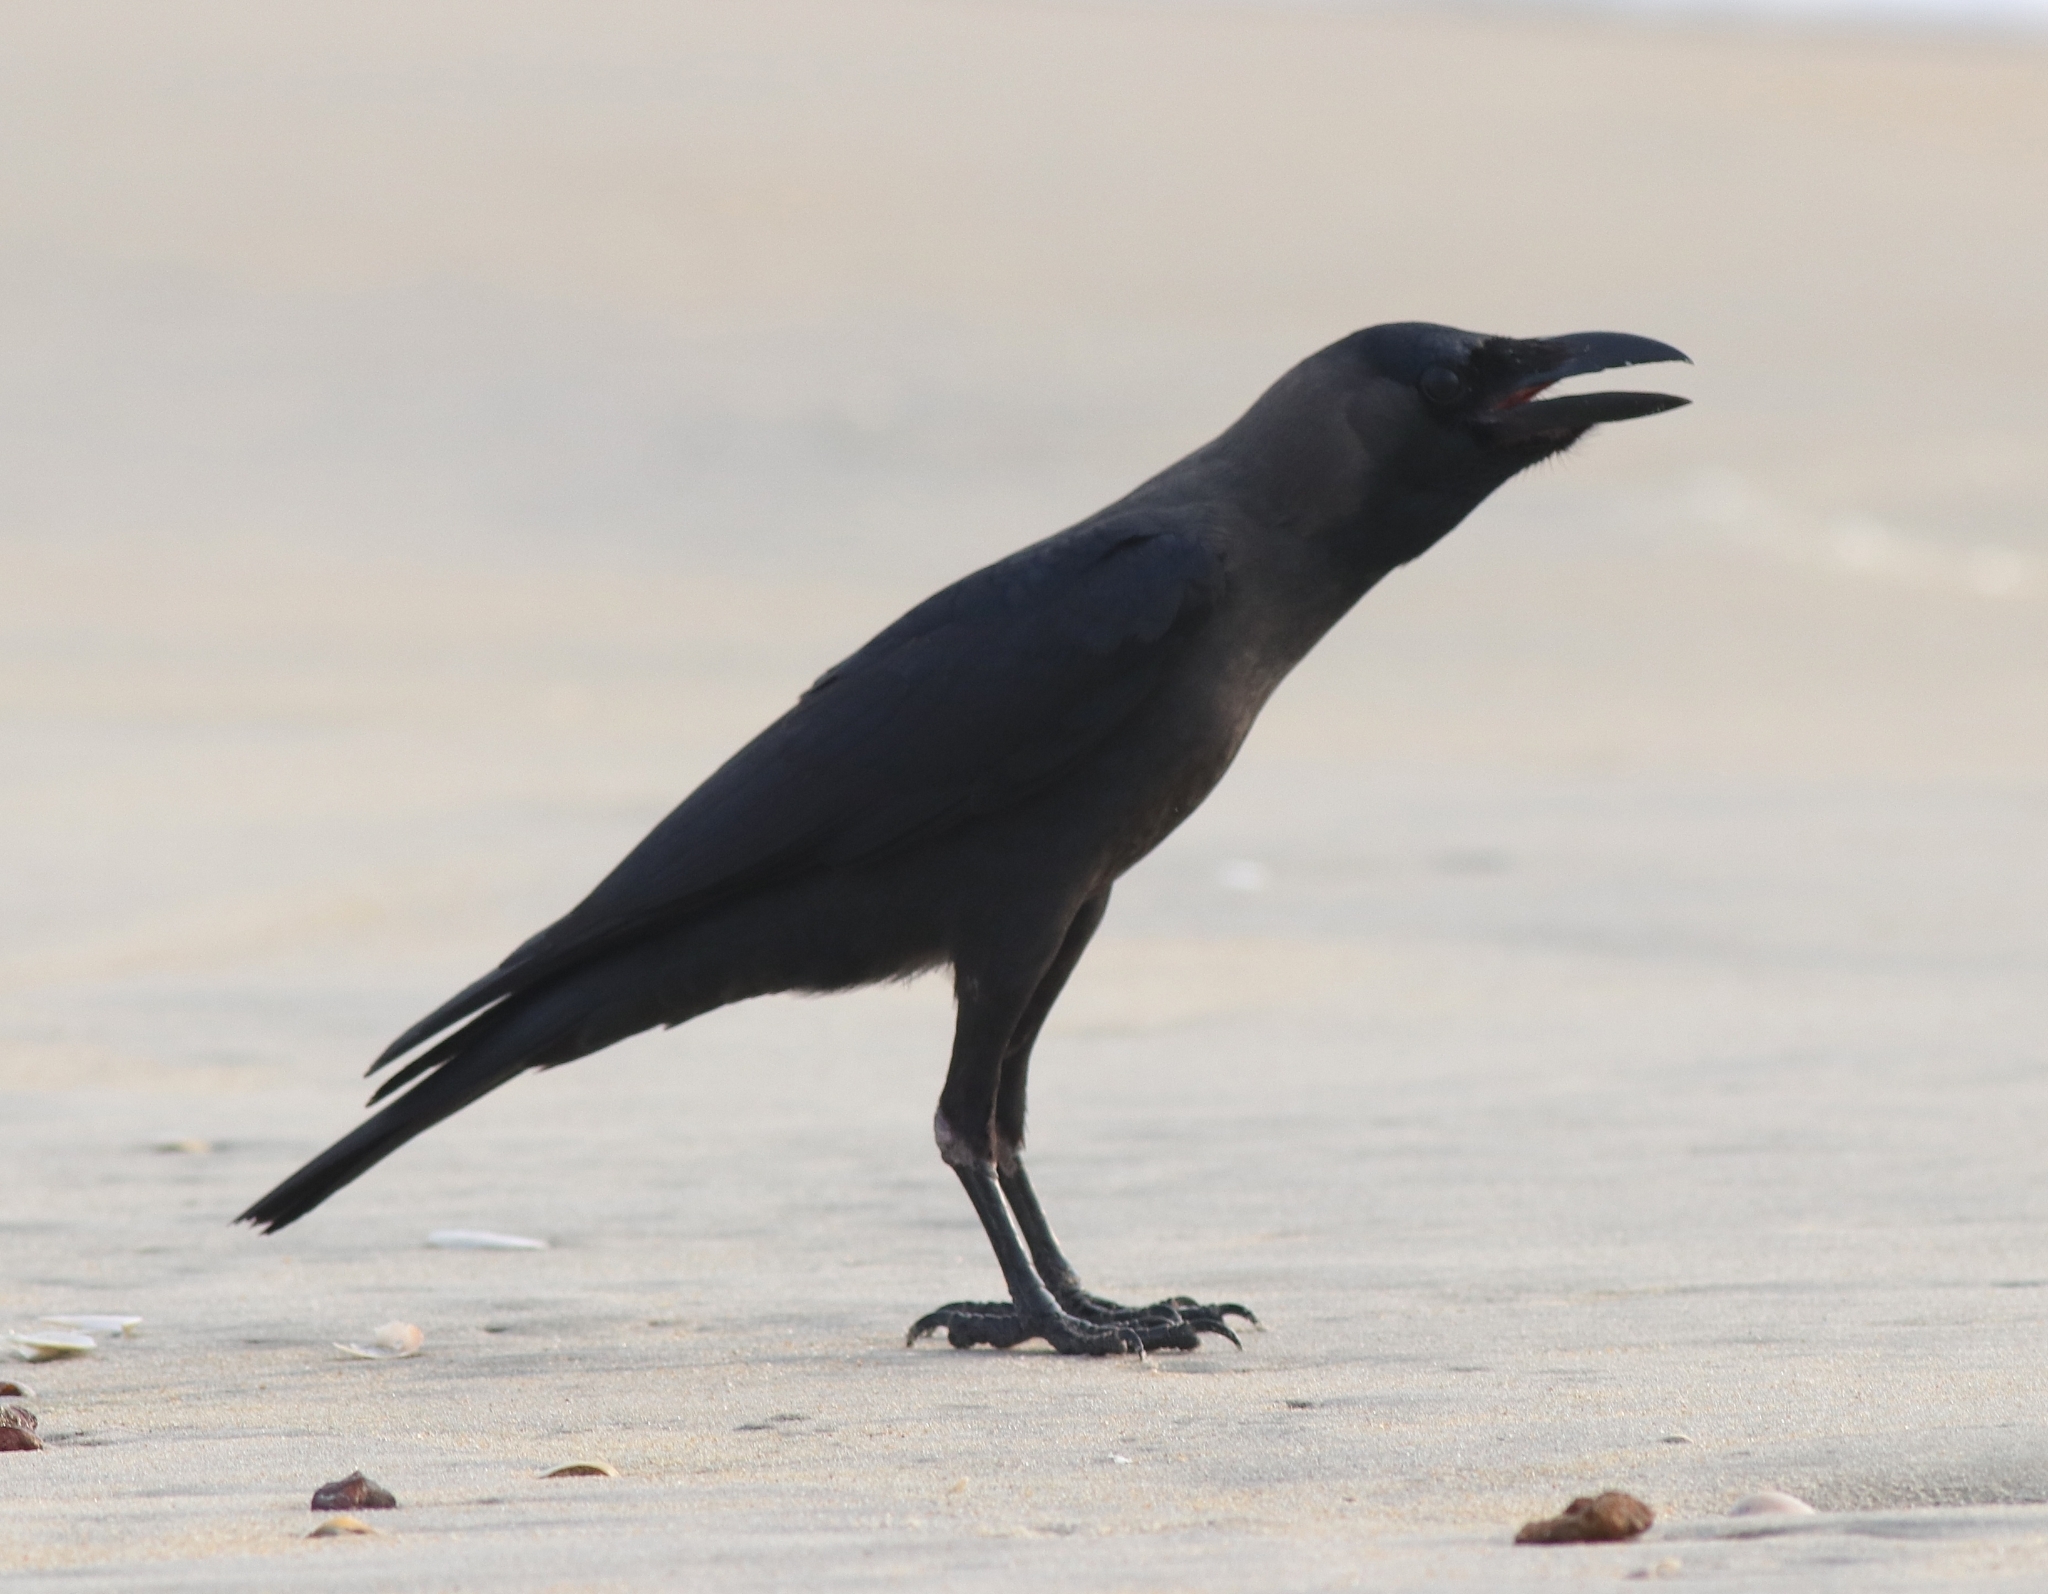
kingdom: Animalia
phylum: Chordata
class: Aves
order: Passeriformes
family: Corvidae
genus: Corvus
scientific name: Corvus splendens
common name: House crow
